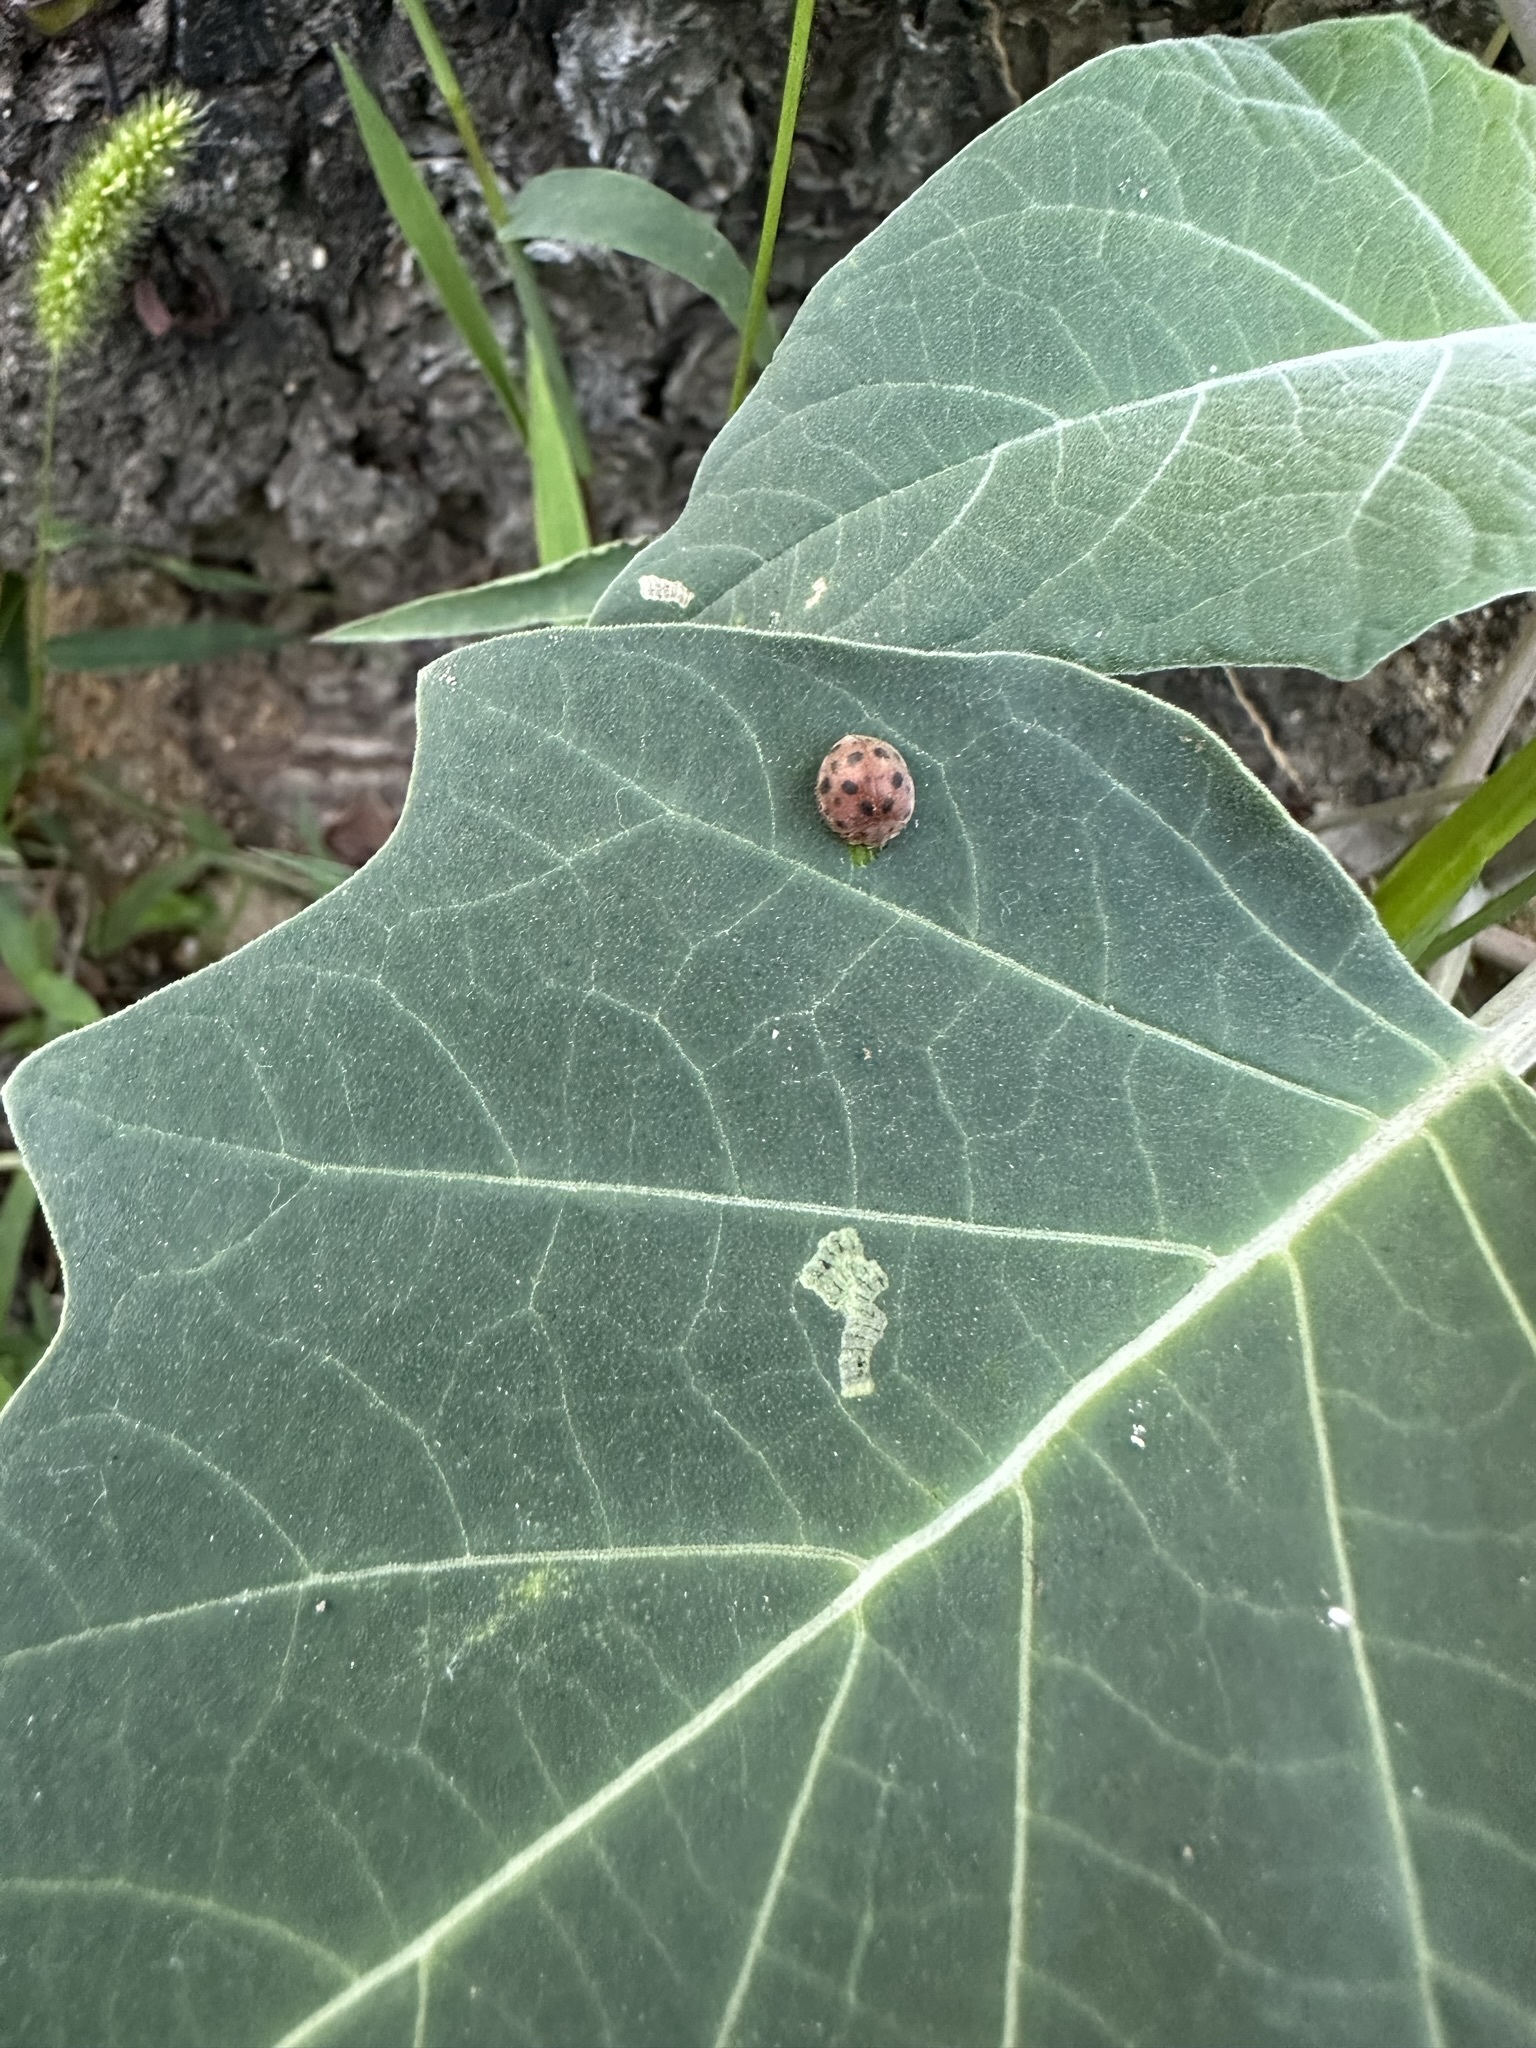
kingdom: Animalia
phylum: Arthropoda
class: Insecta
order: Coleoptera
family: Coccinellidae
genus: Henosepilachna
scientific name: Henosepilachna vigintioctopunctata
